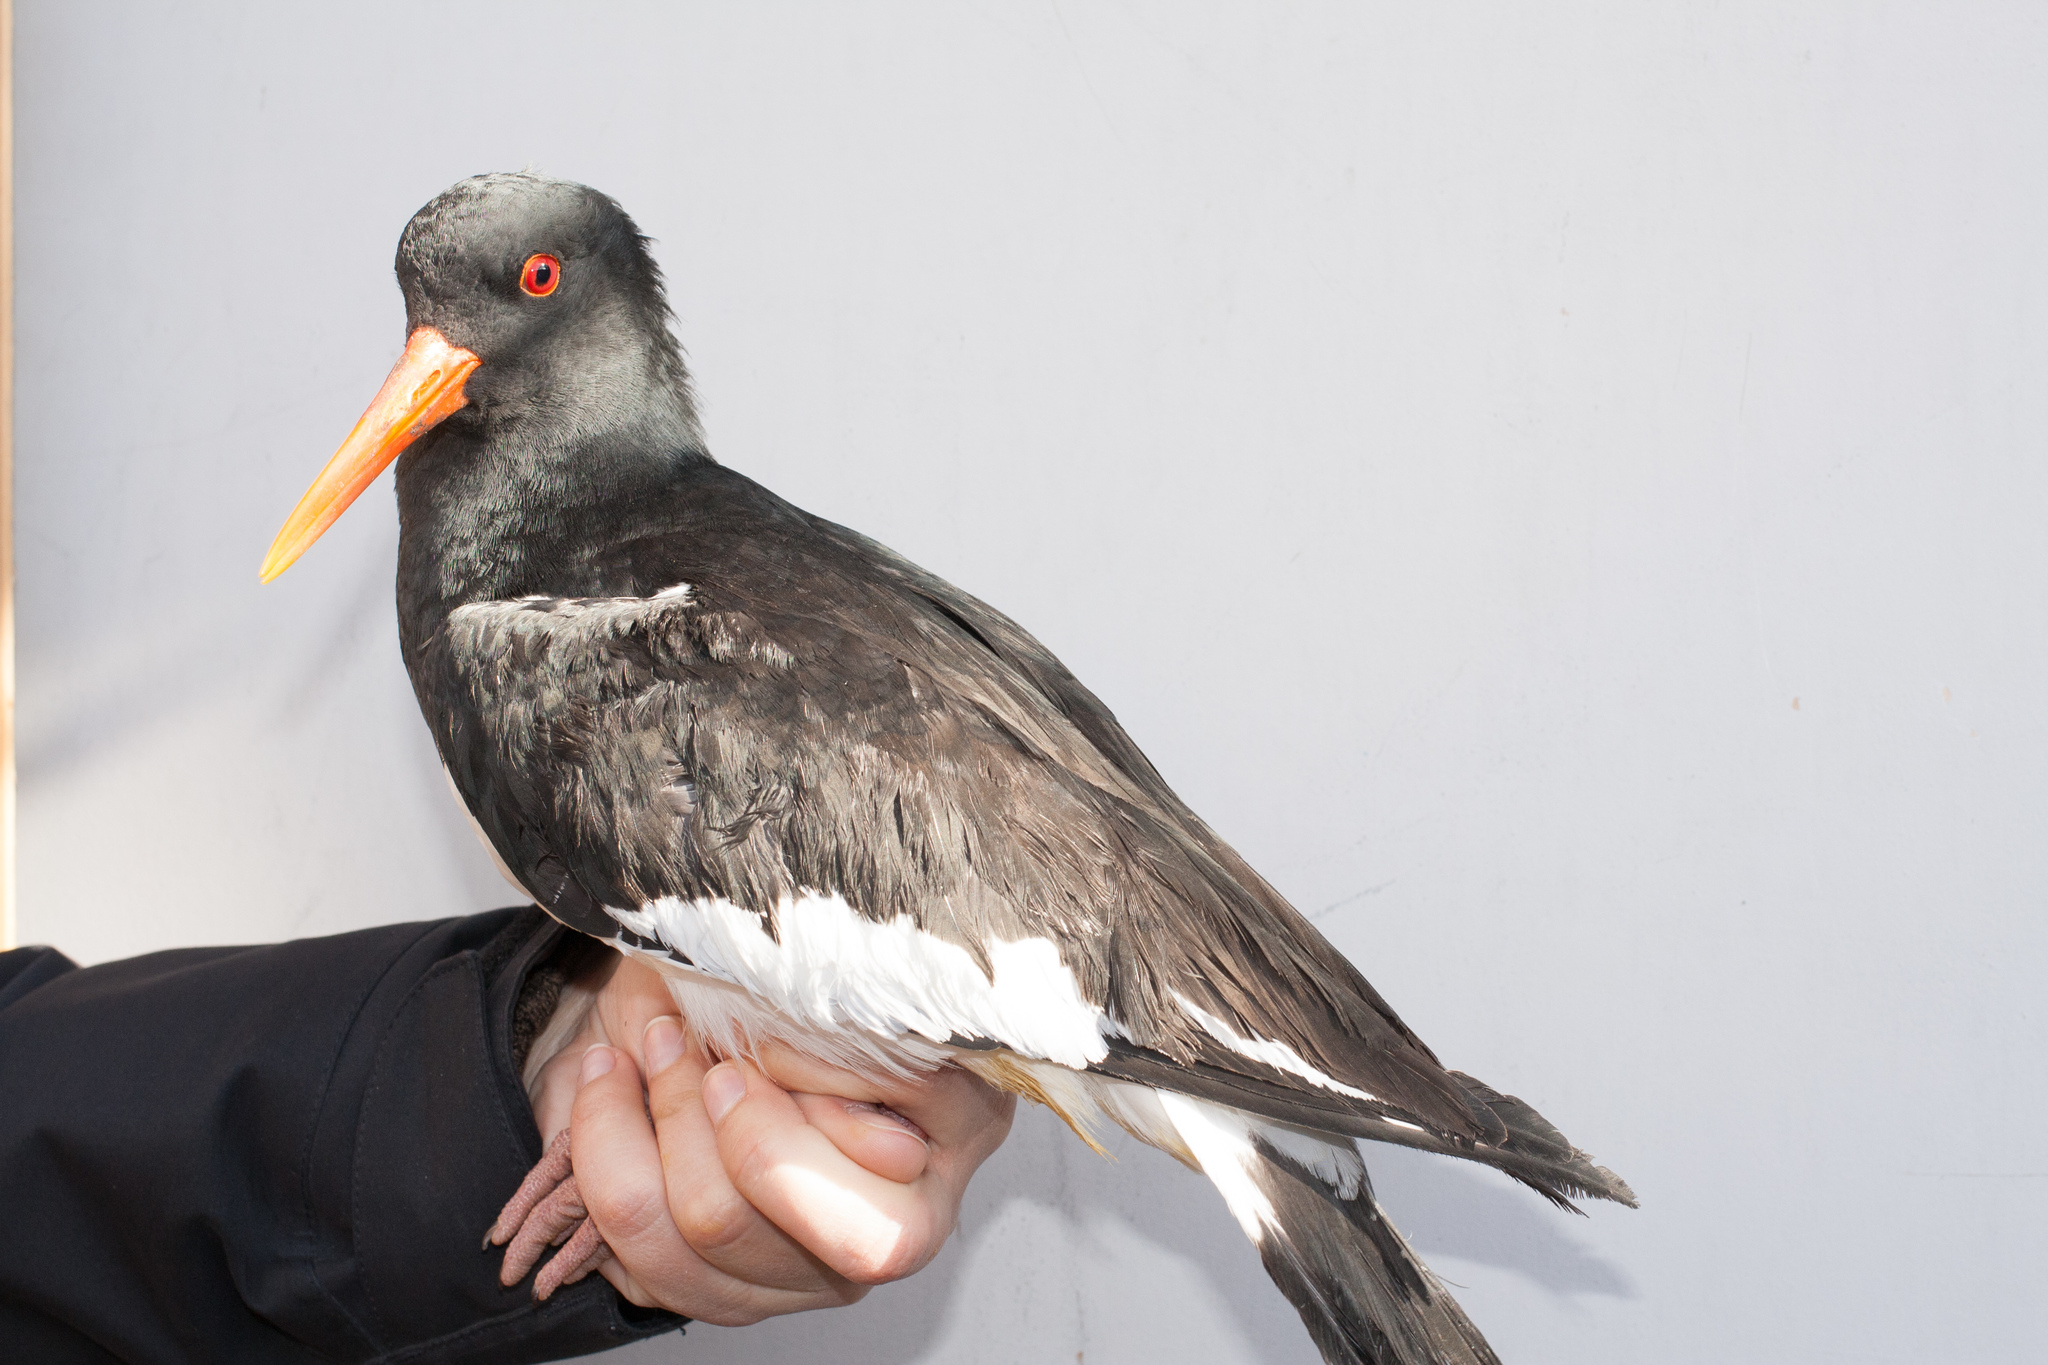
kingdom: Animalia
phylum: Chordata
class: Aves
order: Charadriiformes
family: Haematopodidae
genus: Haematopus
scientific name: Haematopus ostralegus
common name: Eurasian oystercatcher
